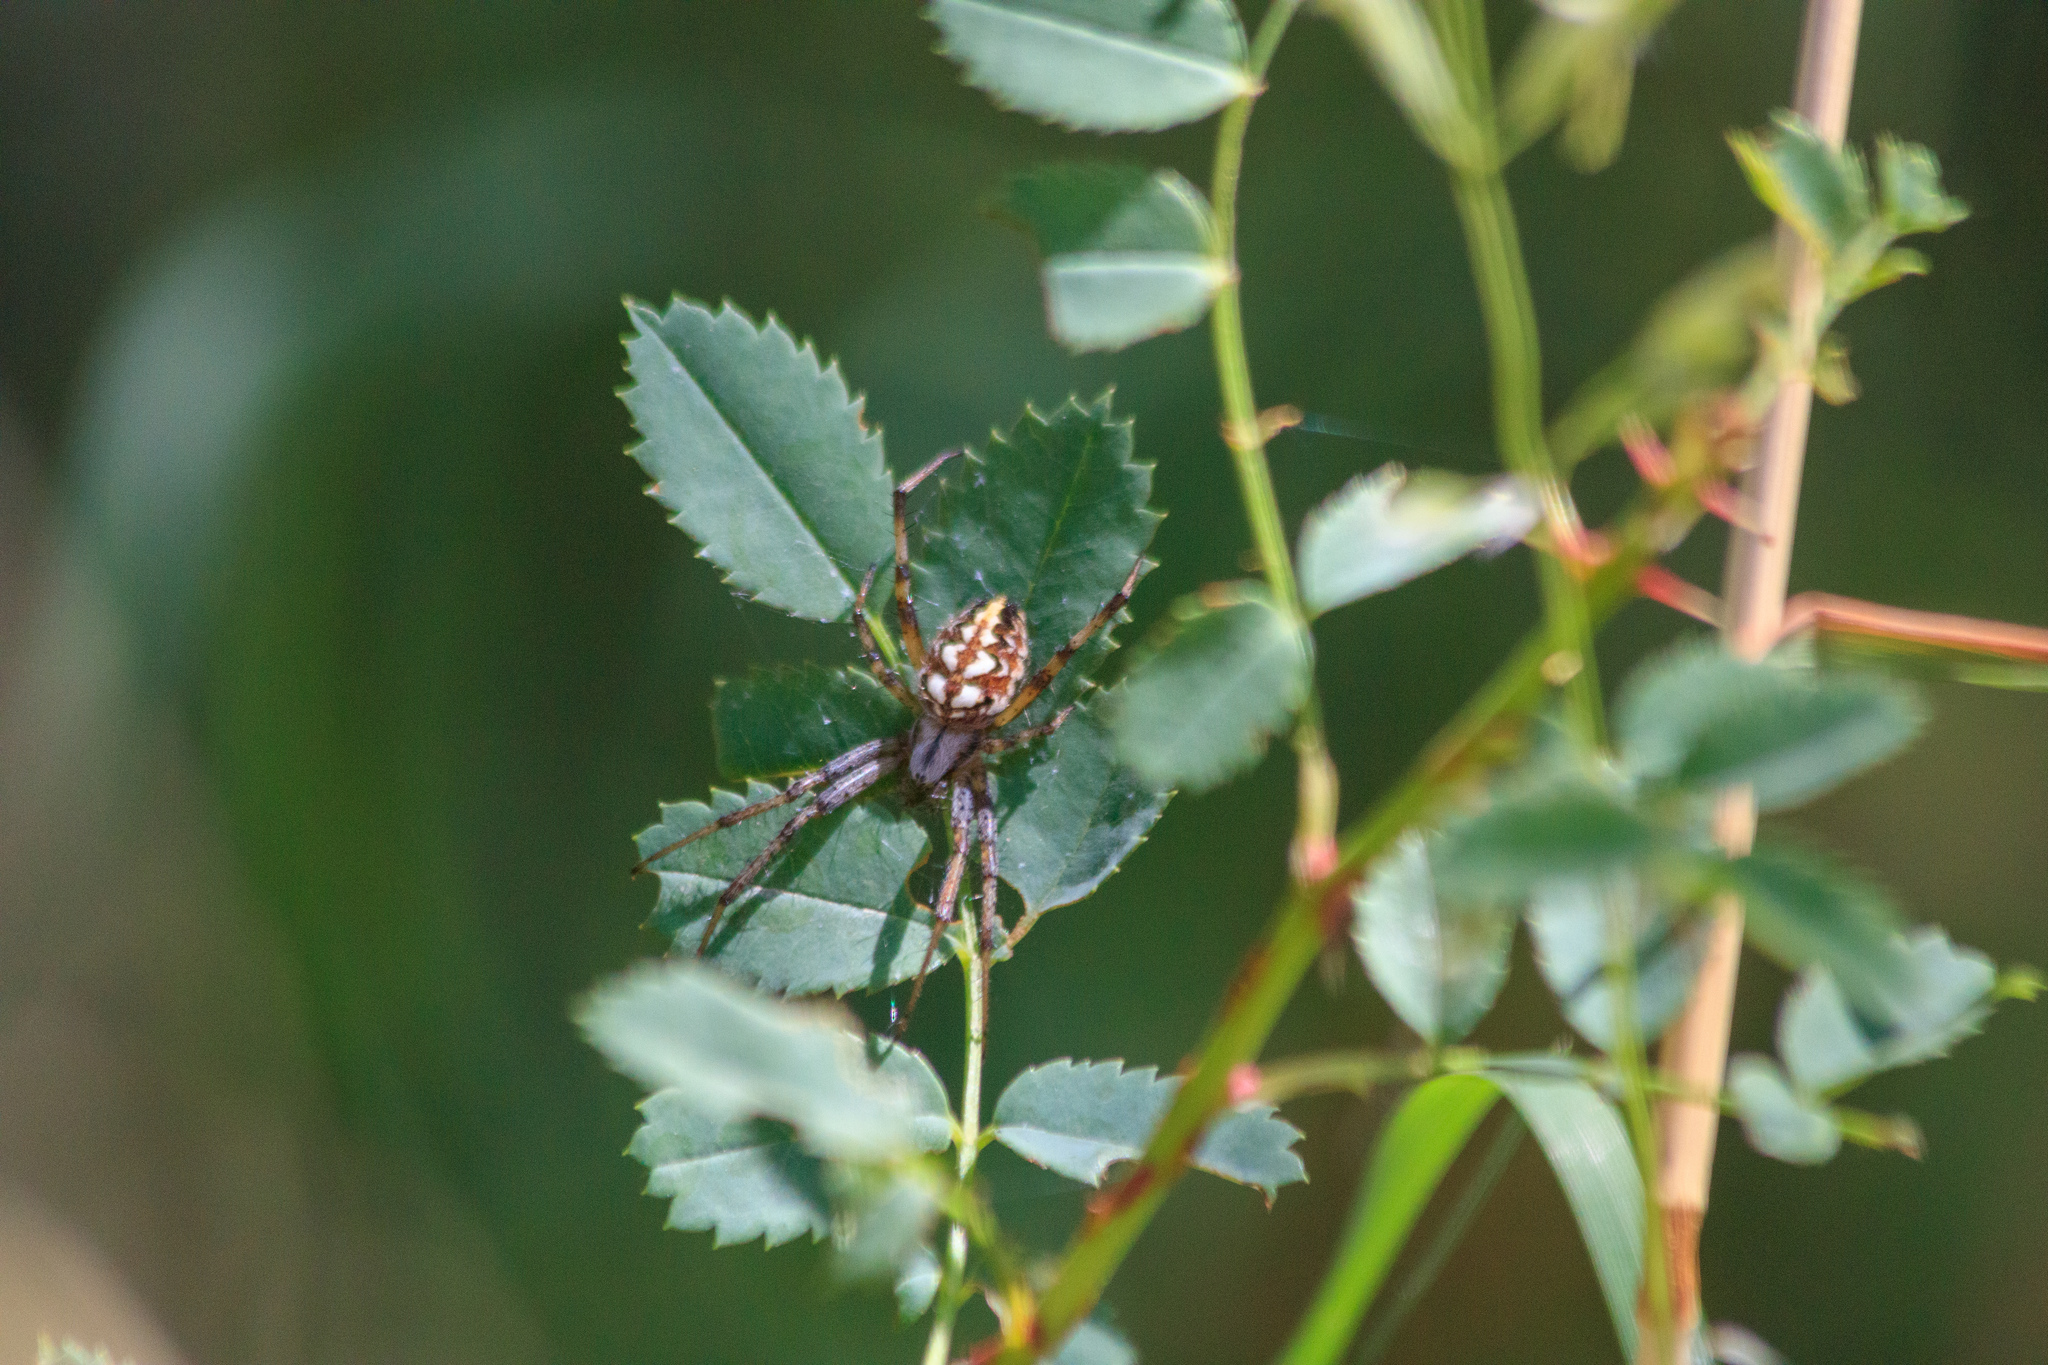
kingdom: Animalia
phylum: Arthropoda
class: Arachnida
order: Araneae
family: Araneidae
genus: Neoscona
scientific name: Neoscona adianta
